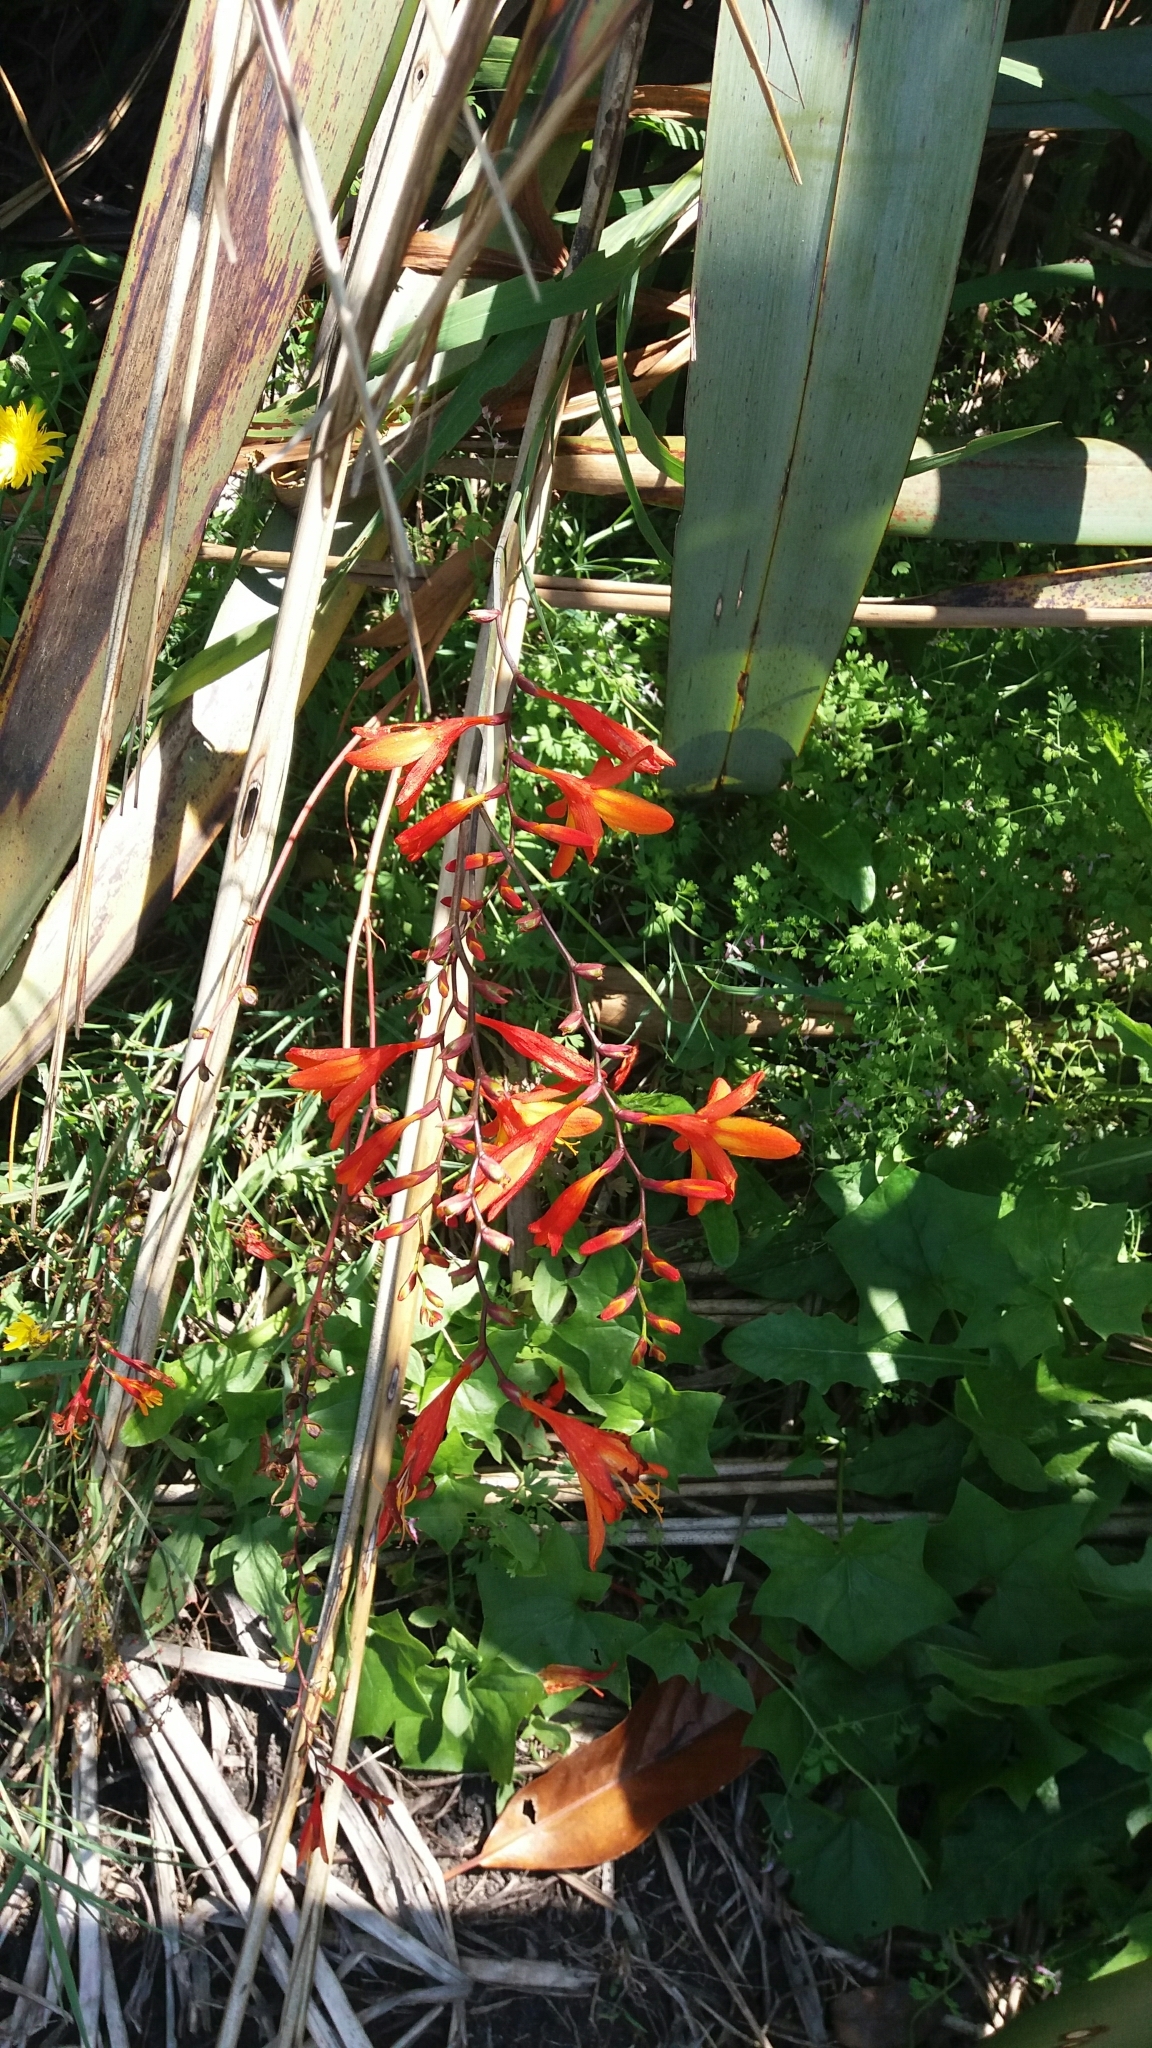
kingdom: Plantae
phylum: Tracheophyta
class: Liliopsida
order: Asparagales
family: Iridaceae
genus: Crocosmia
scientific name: Crocosmia crocosmiiflora
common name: Montbretia
